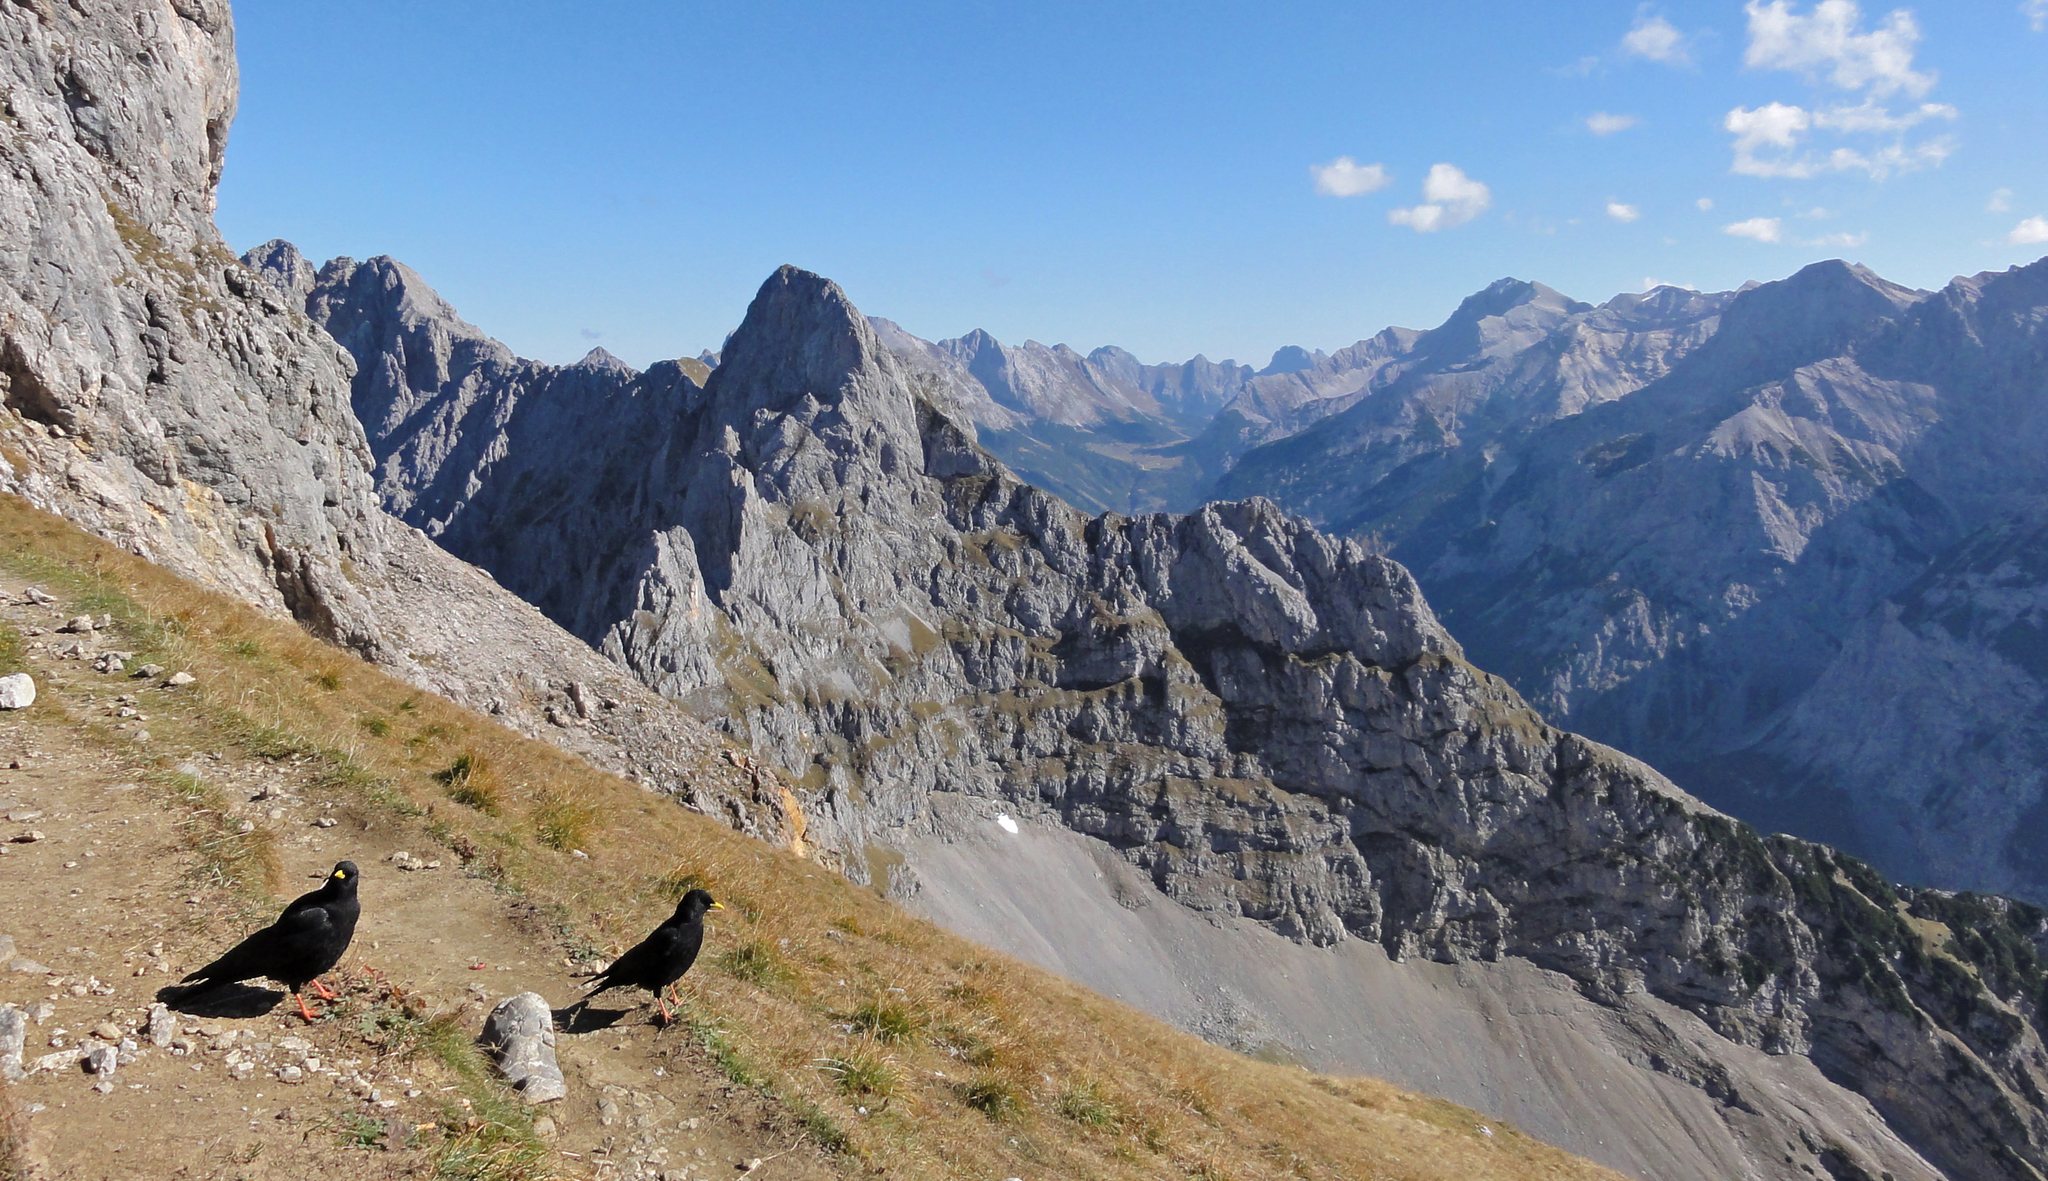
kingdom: Animalia
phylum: Chordata
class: Aves
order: Passeriformes
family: Corvidae
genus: Pyrrhocorax
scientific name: Pyrrhocorax graculus
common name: Alpine chough
